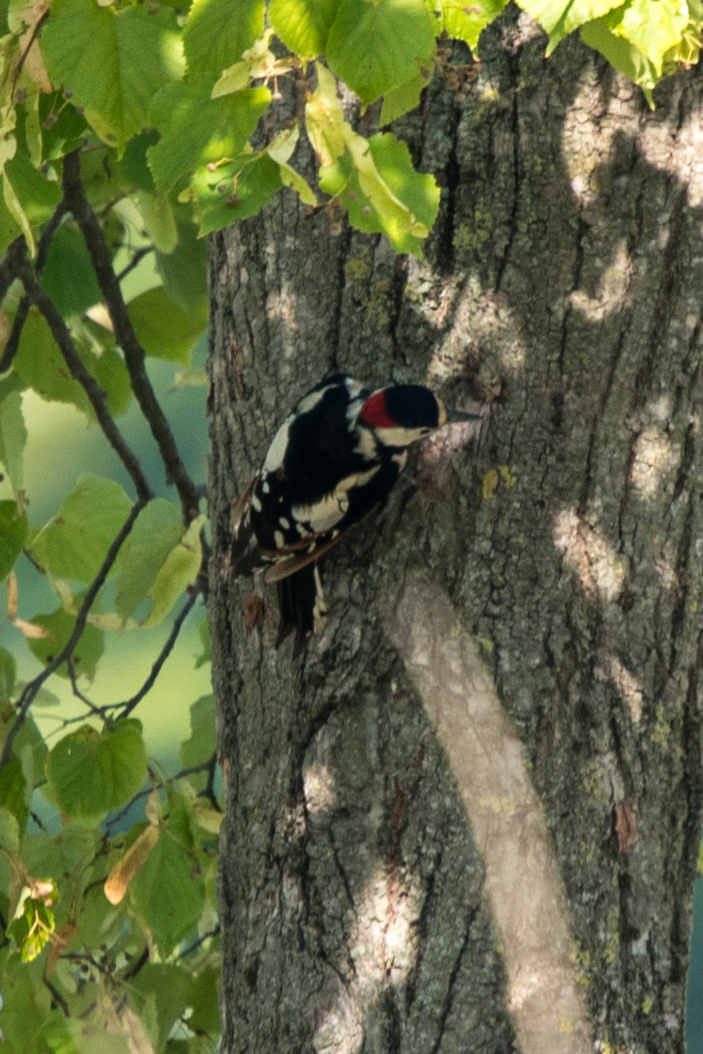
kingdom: Animalia
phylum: Chordata
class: Aves
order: Piciformes
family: Picidae
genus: Dendrocopos
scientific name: Dendrocopos major
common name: Great spotted woodpecker
